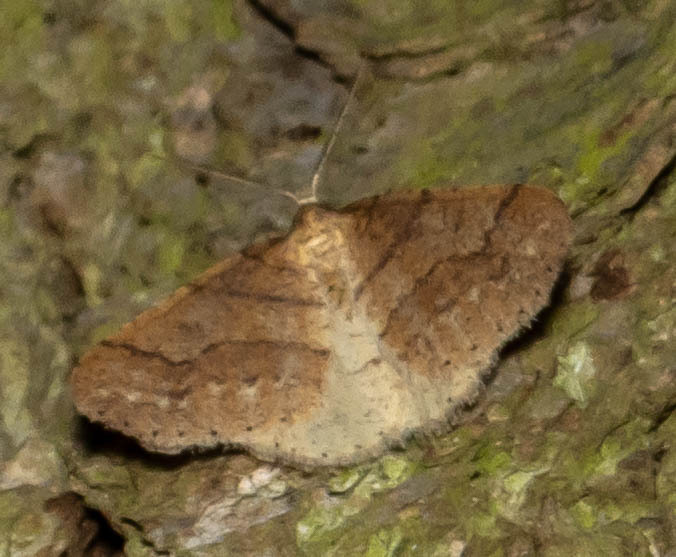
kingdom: Animalia
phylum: Arthropoda
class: Insecta
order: Lepidoptera
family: Geometridae
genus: Agriopis
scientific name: Agriopis marginaria
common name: Dotted border
